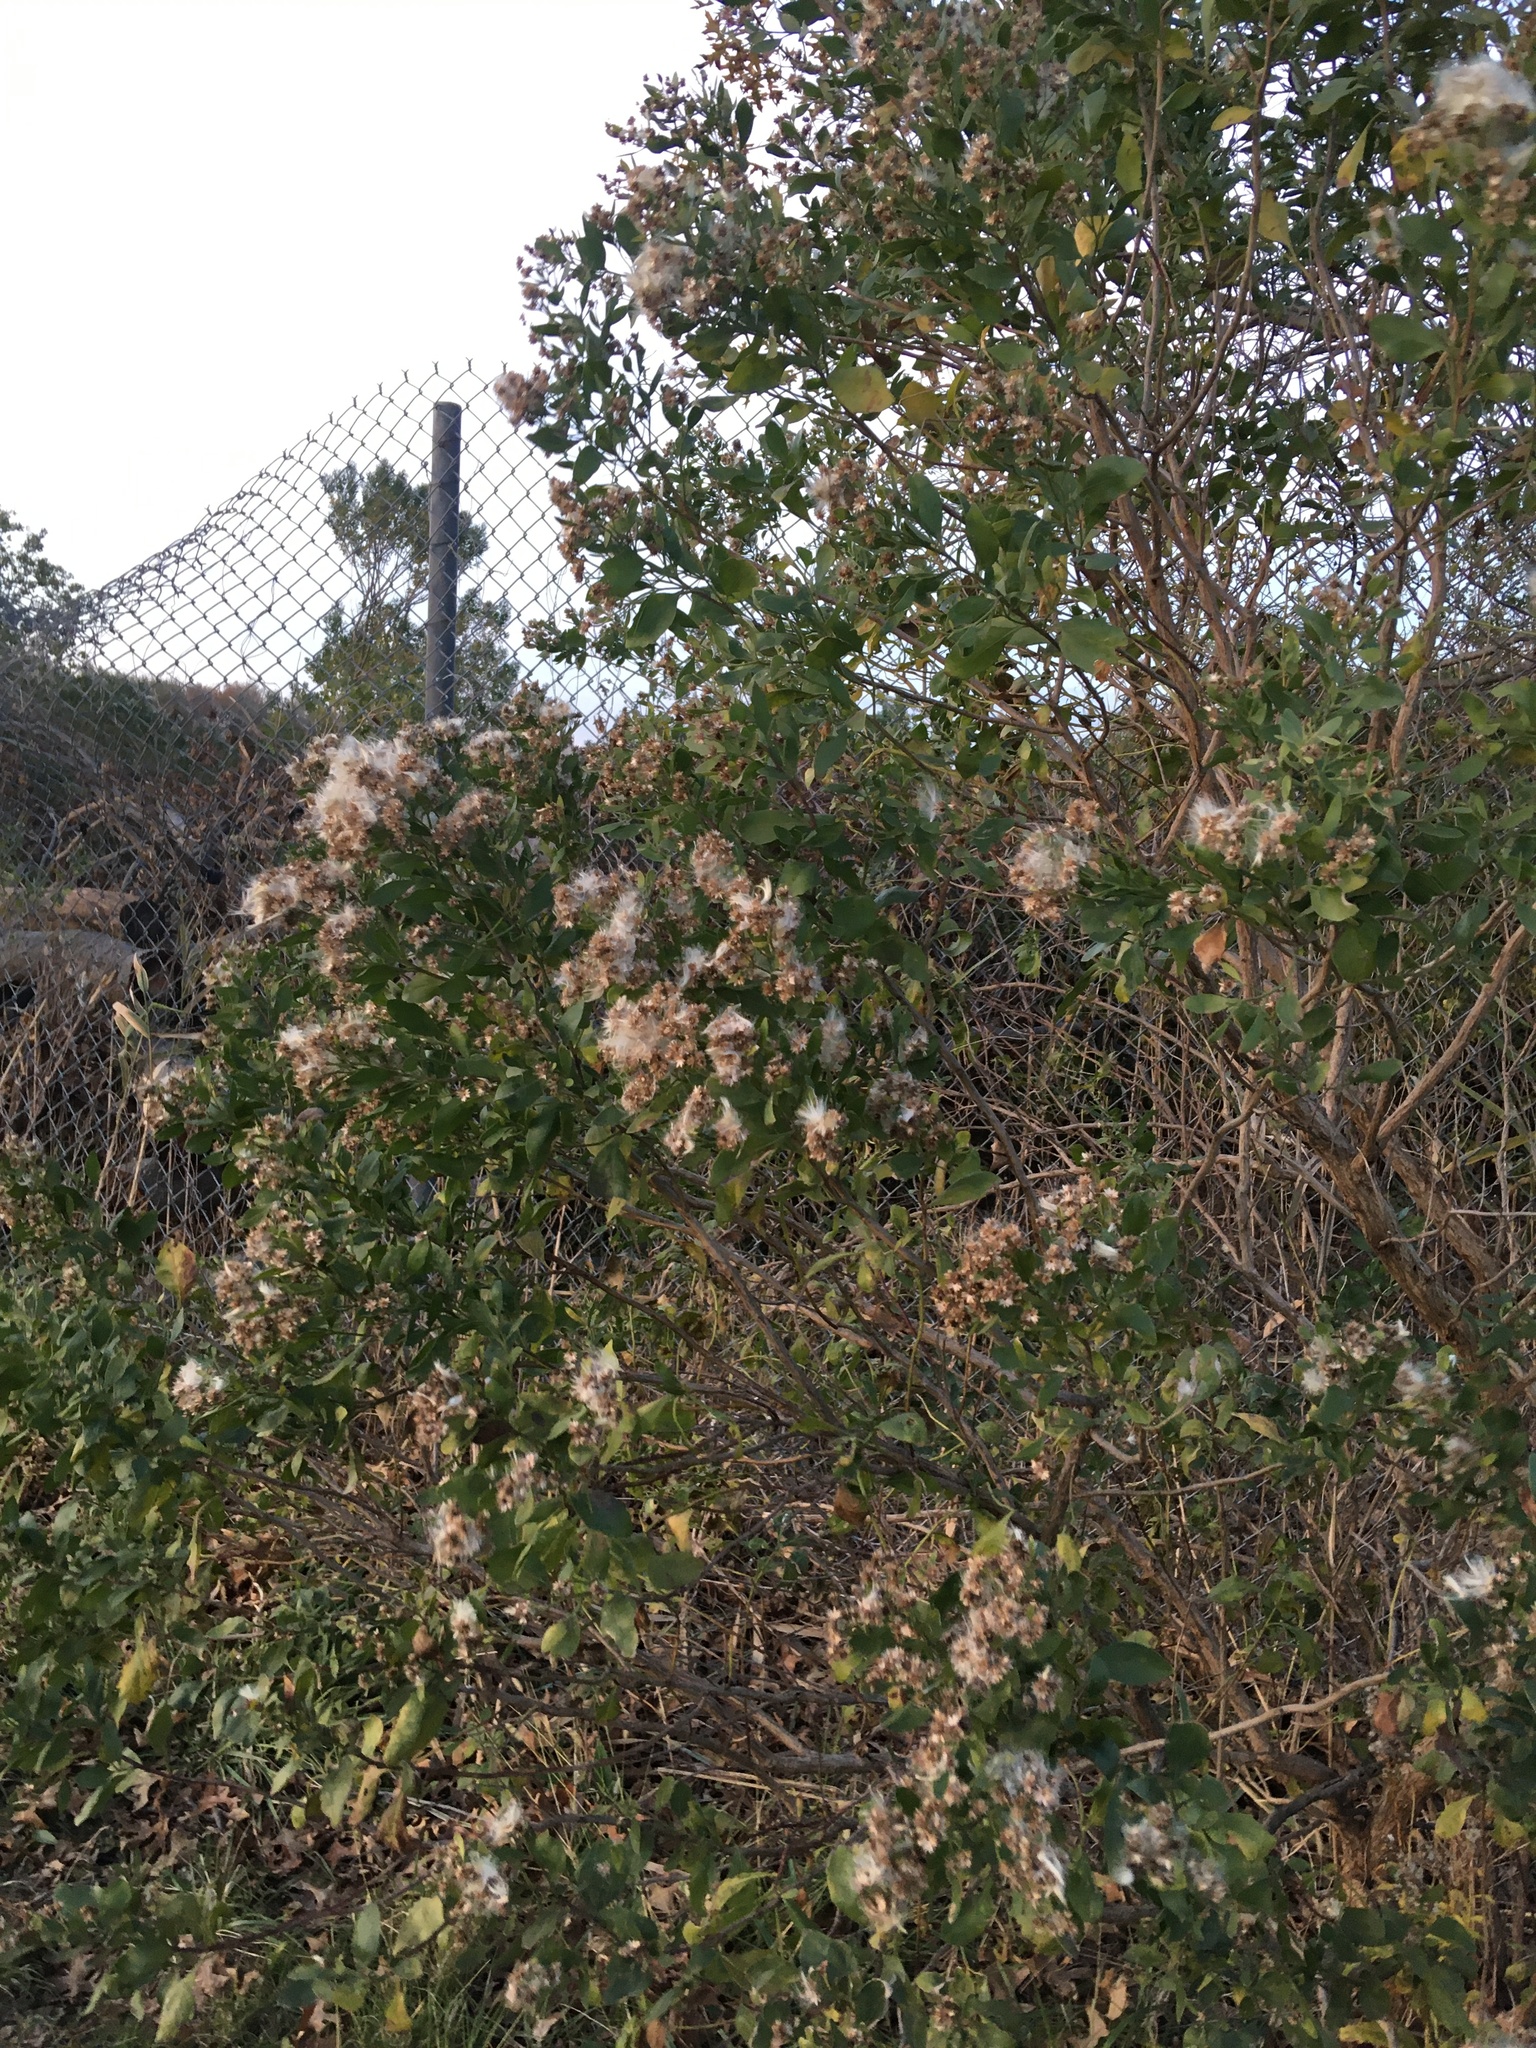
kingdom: Plantae
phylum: Tracheophyta
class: Magnoliopsida
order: Asterales
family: Asteraceae
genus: Baccharis
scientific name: Baccharis halimifolia
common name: Eastern baccharis
